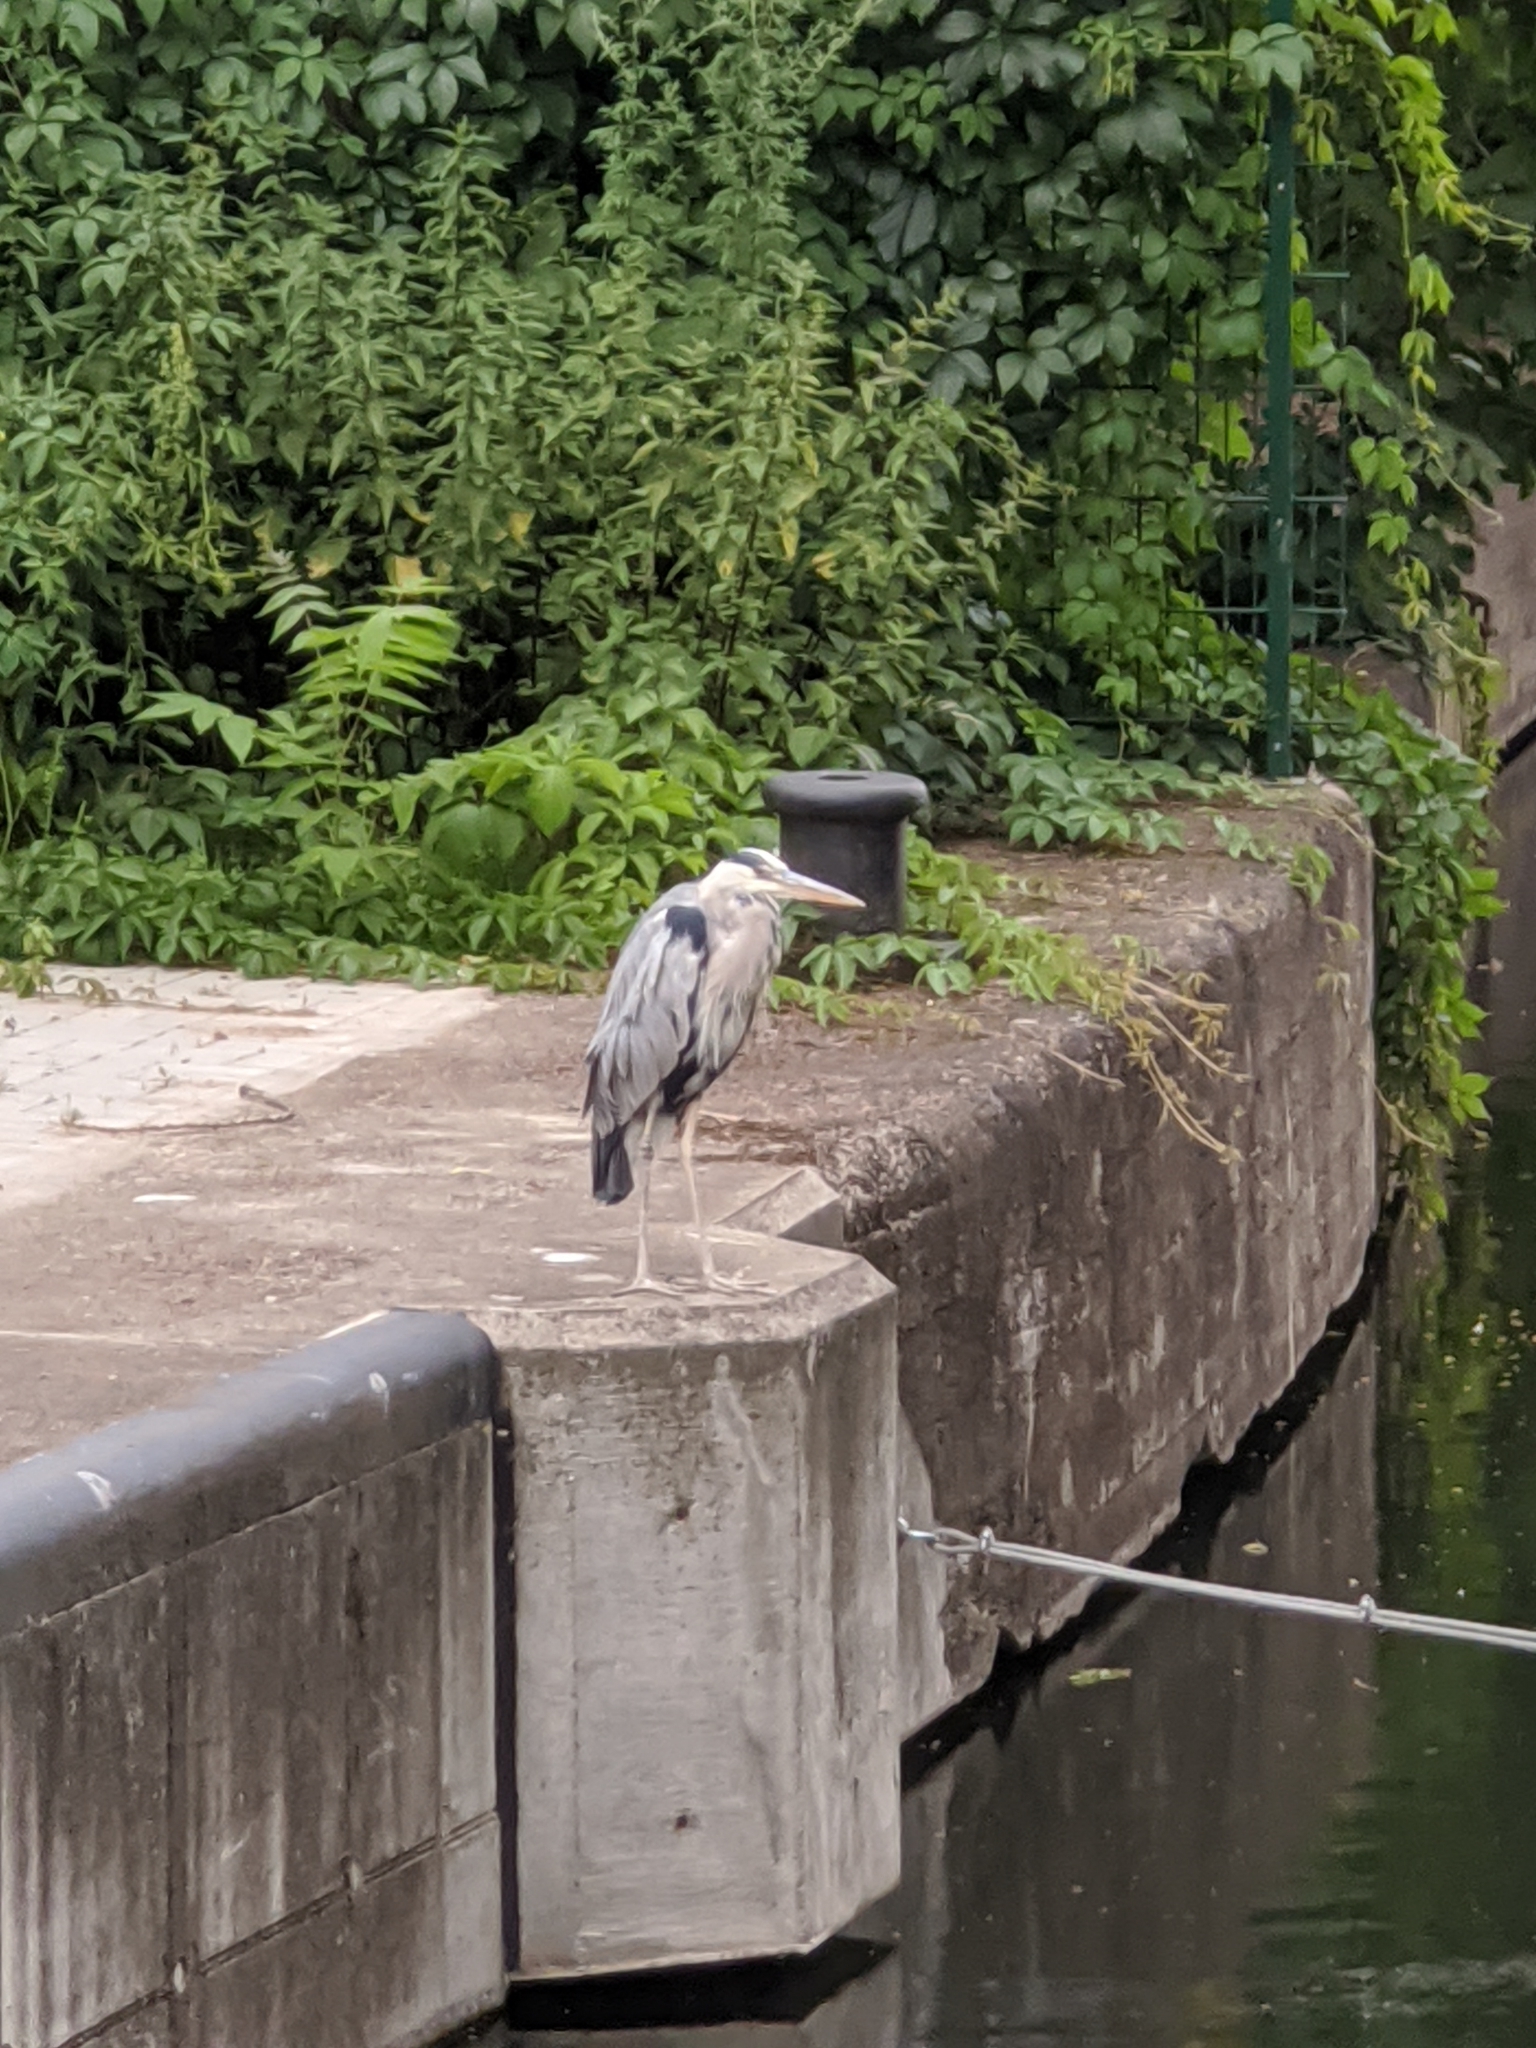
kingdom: Animalia
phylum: Chordata
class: Aves
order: Pelecaniformes
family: Ardeidae
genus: Ardea
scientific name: Ardea cinerea
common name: Grey heron
